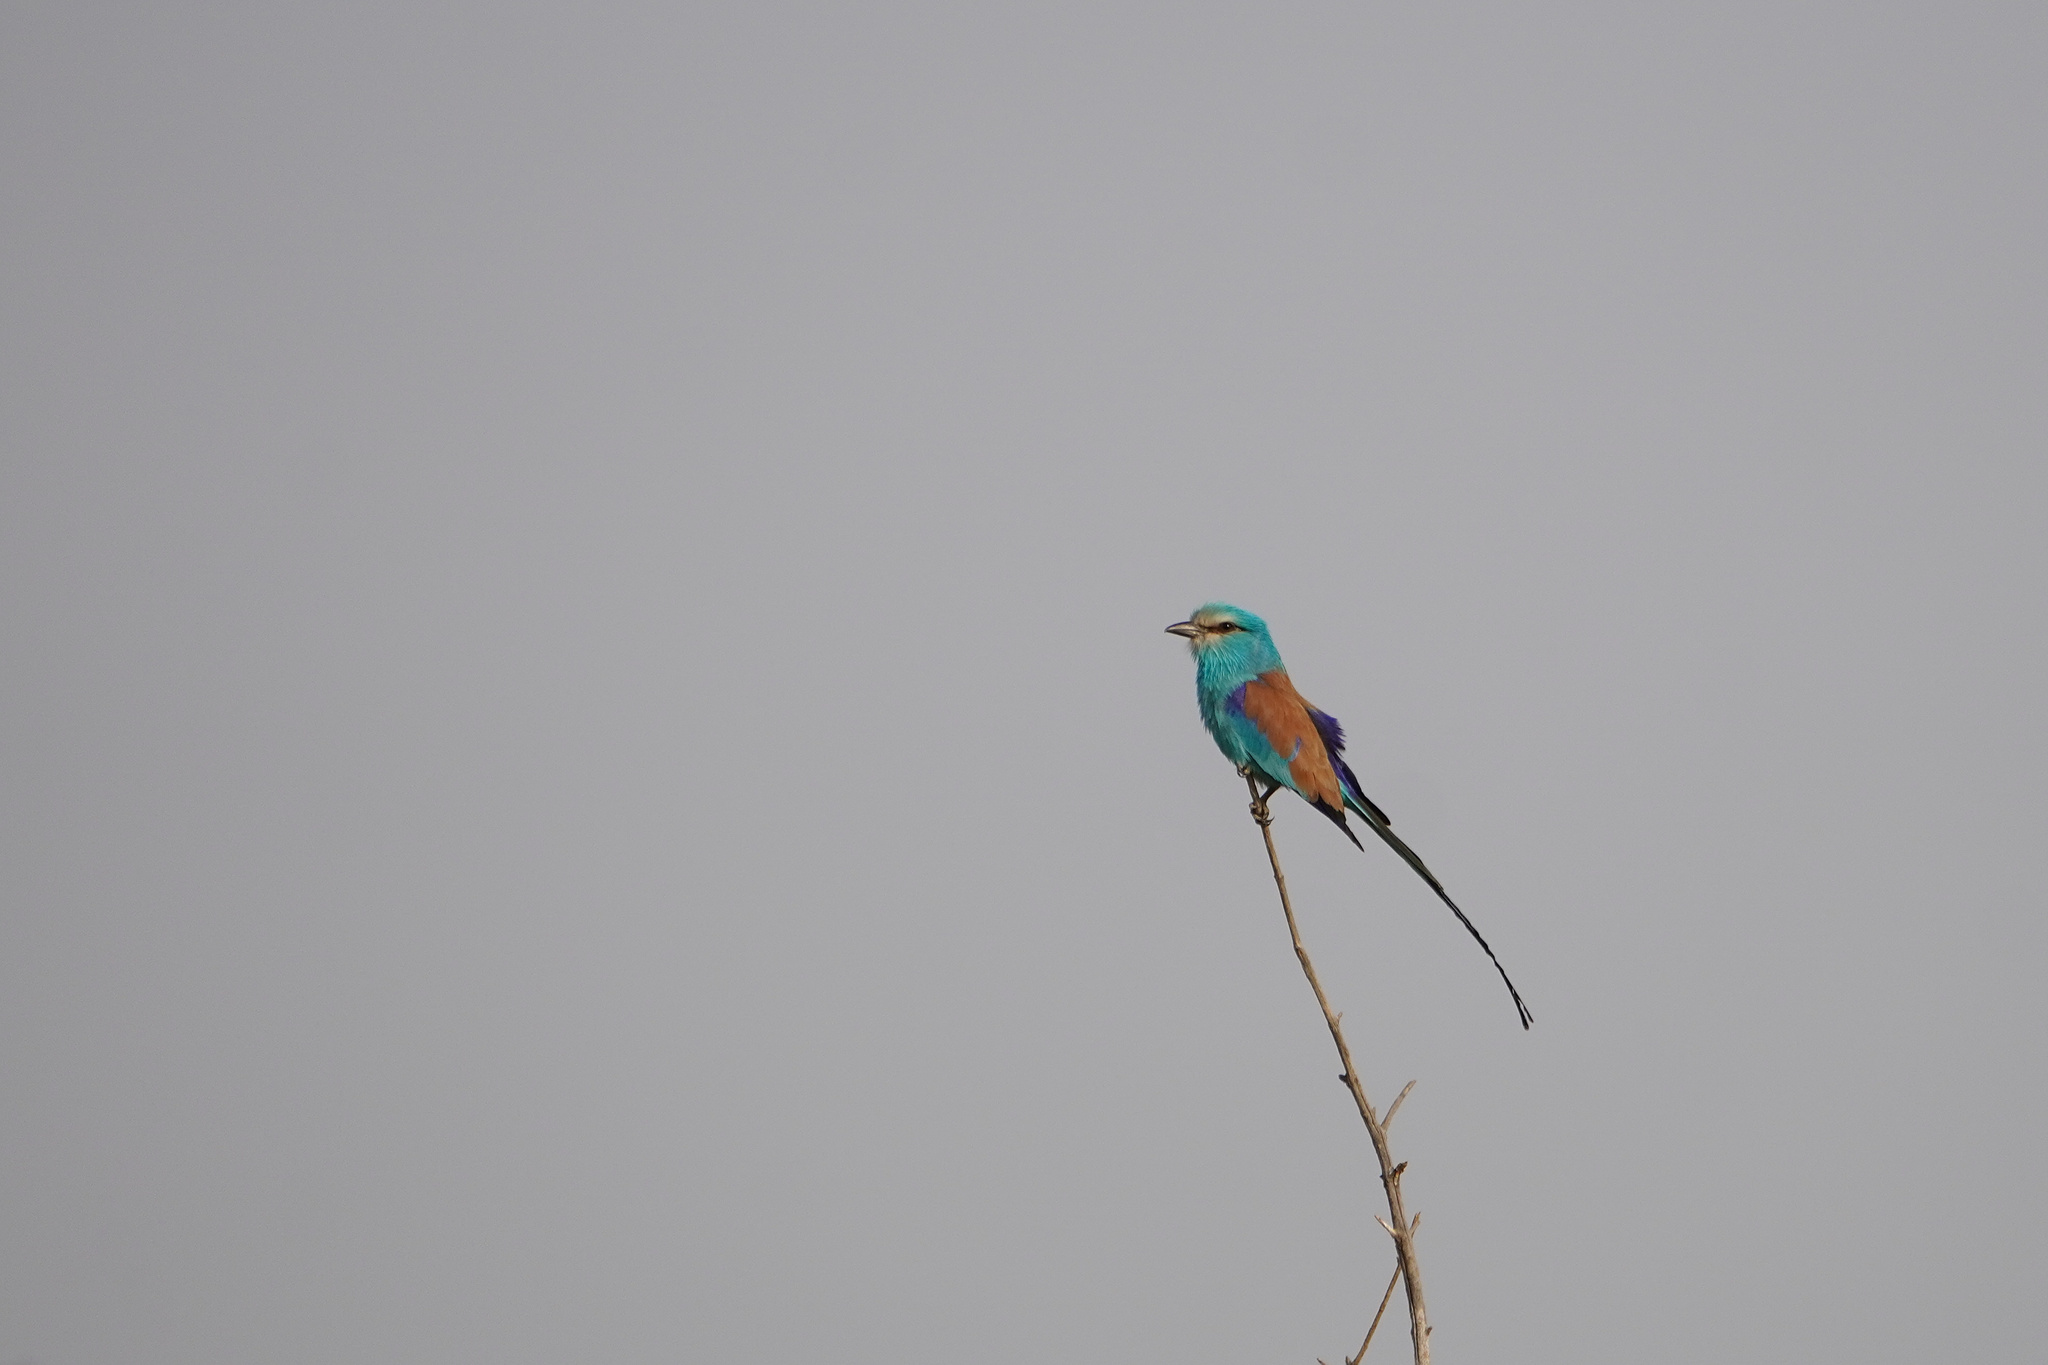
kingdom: Animalia
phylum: Chordata
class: Aves
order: Coraciiformes
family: Coraciidae
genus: Coracias
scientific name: Coracias abyssinicus
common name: Abyssinian roller
